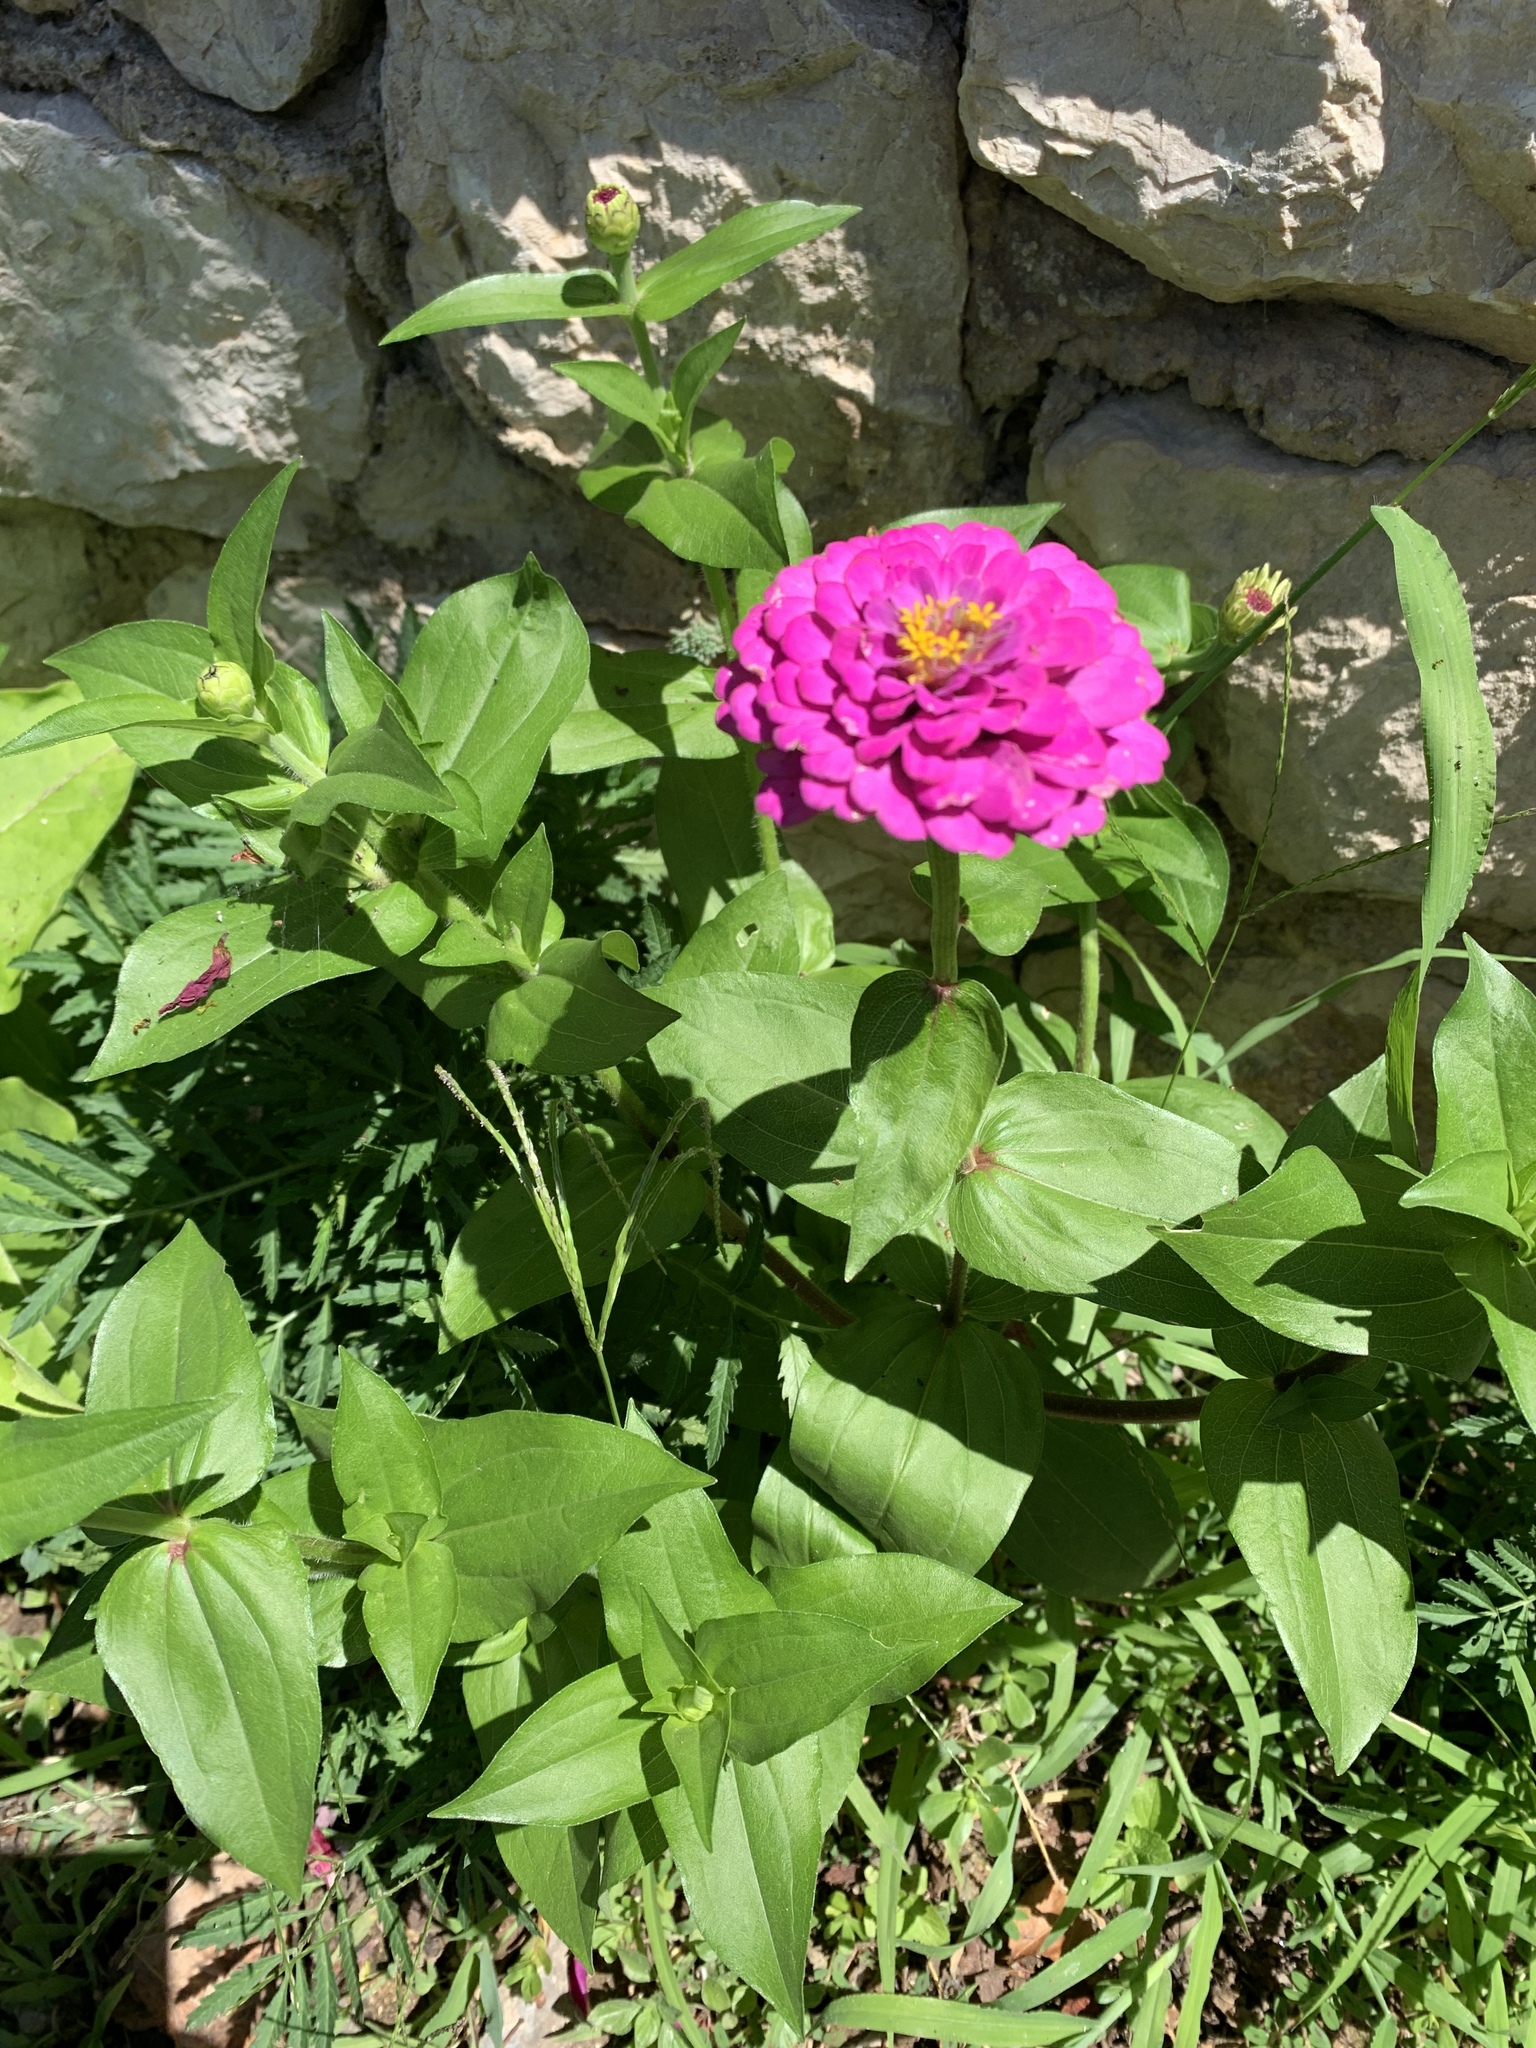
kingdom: Plantae
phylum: Tracheophyta
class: Magnoliopsida
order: Asterales
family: Asteraceae
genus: Zinnia
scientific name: Zinnia elegans
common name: Youth-and-age
